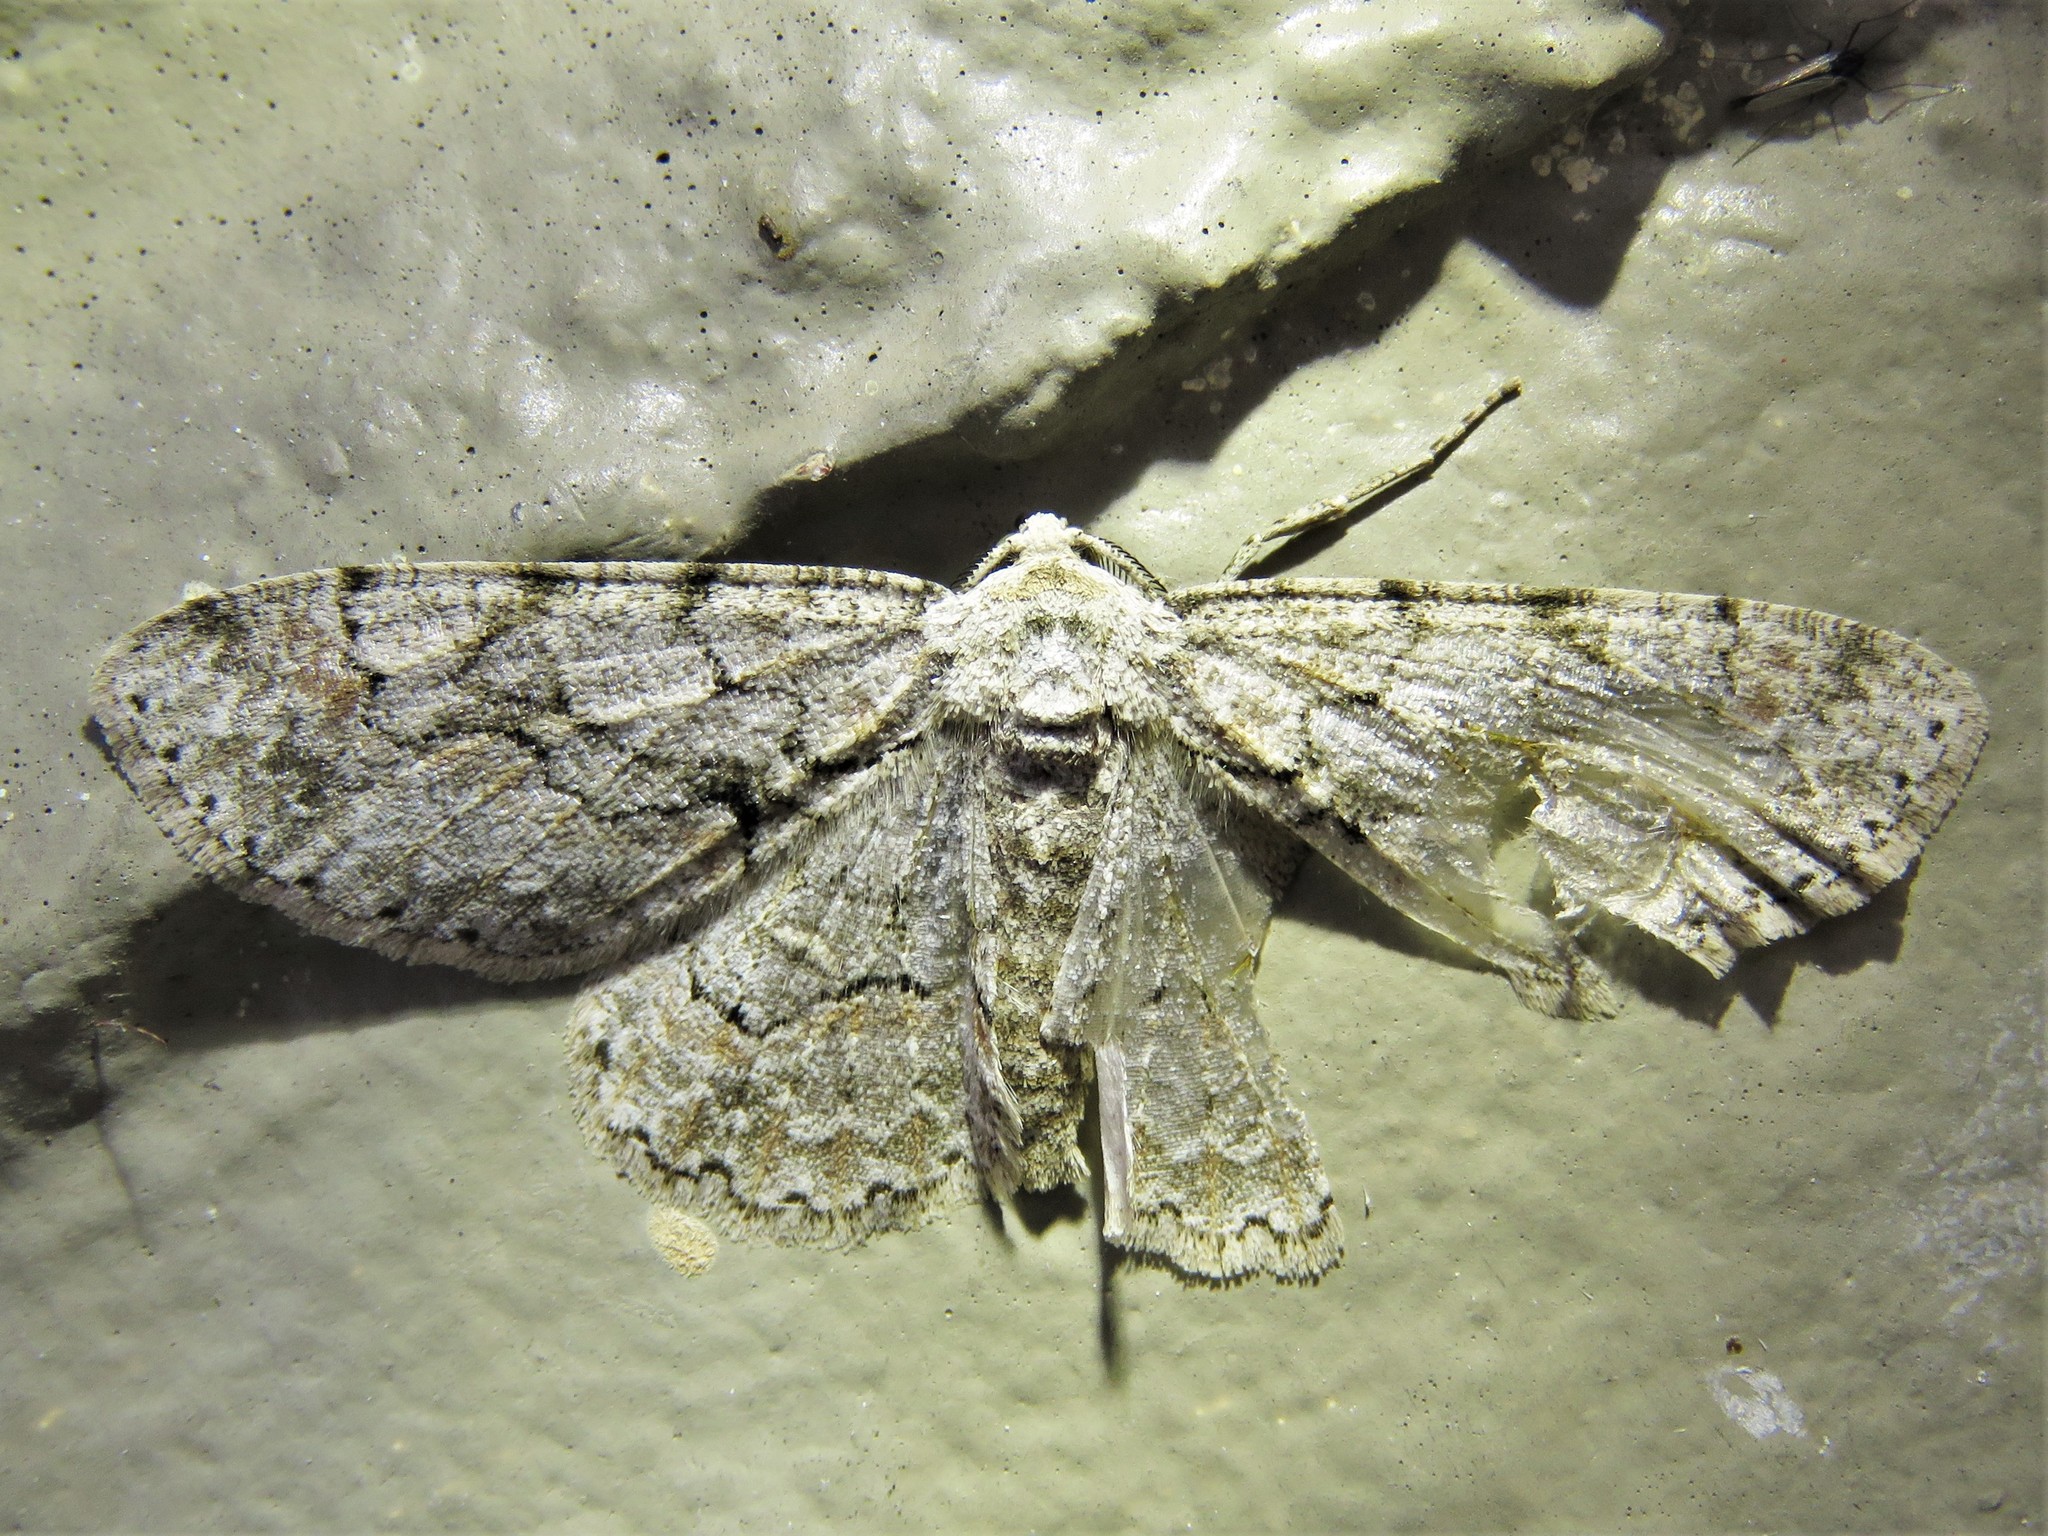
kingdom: Animalia
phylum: Arthropoda
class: Insecta
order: Lepidoptera
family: Geometridae
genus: Iridopsis
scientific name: Iridopsis defectaria
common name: Brown-shaded gray
